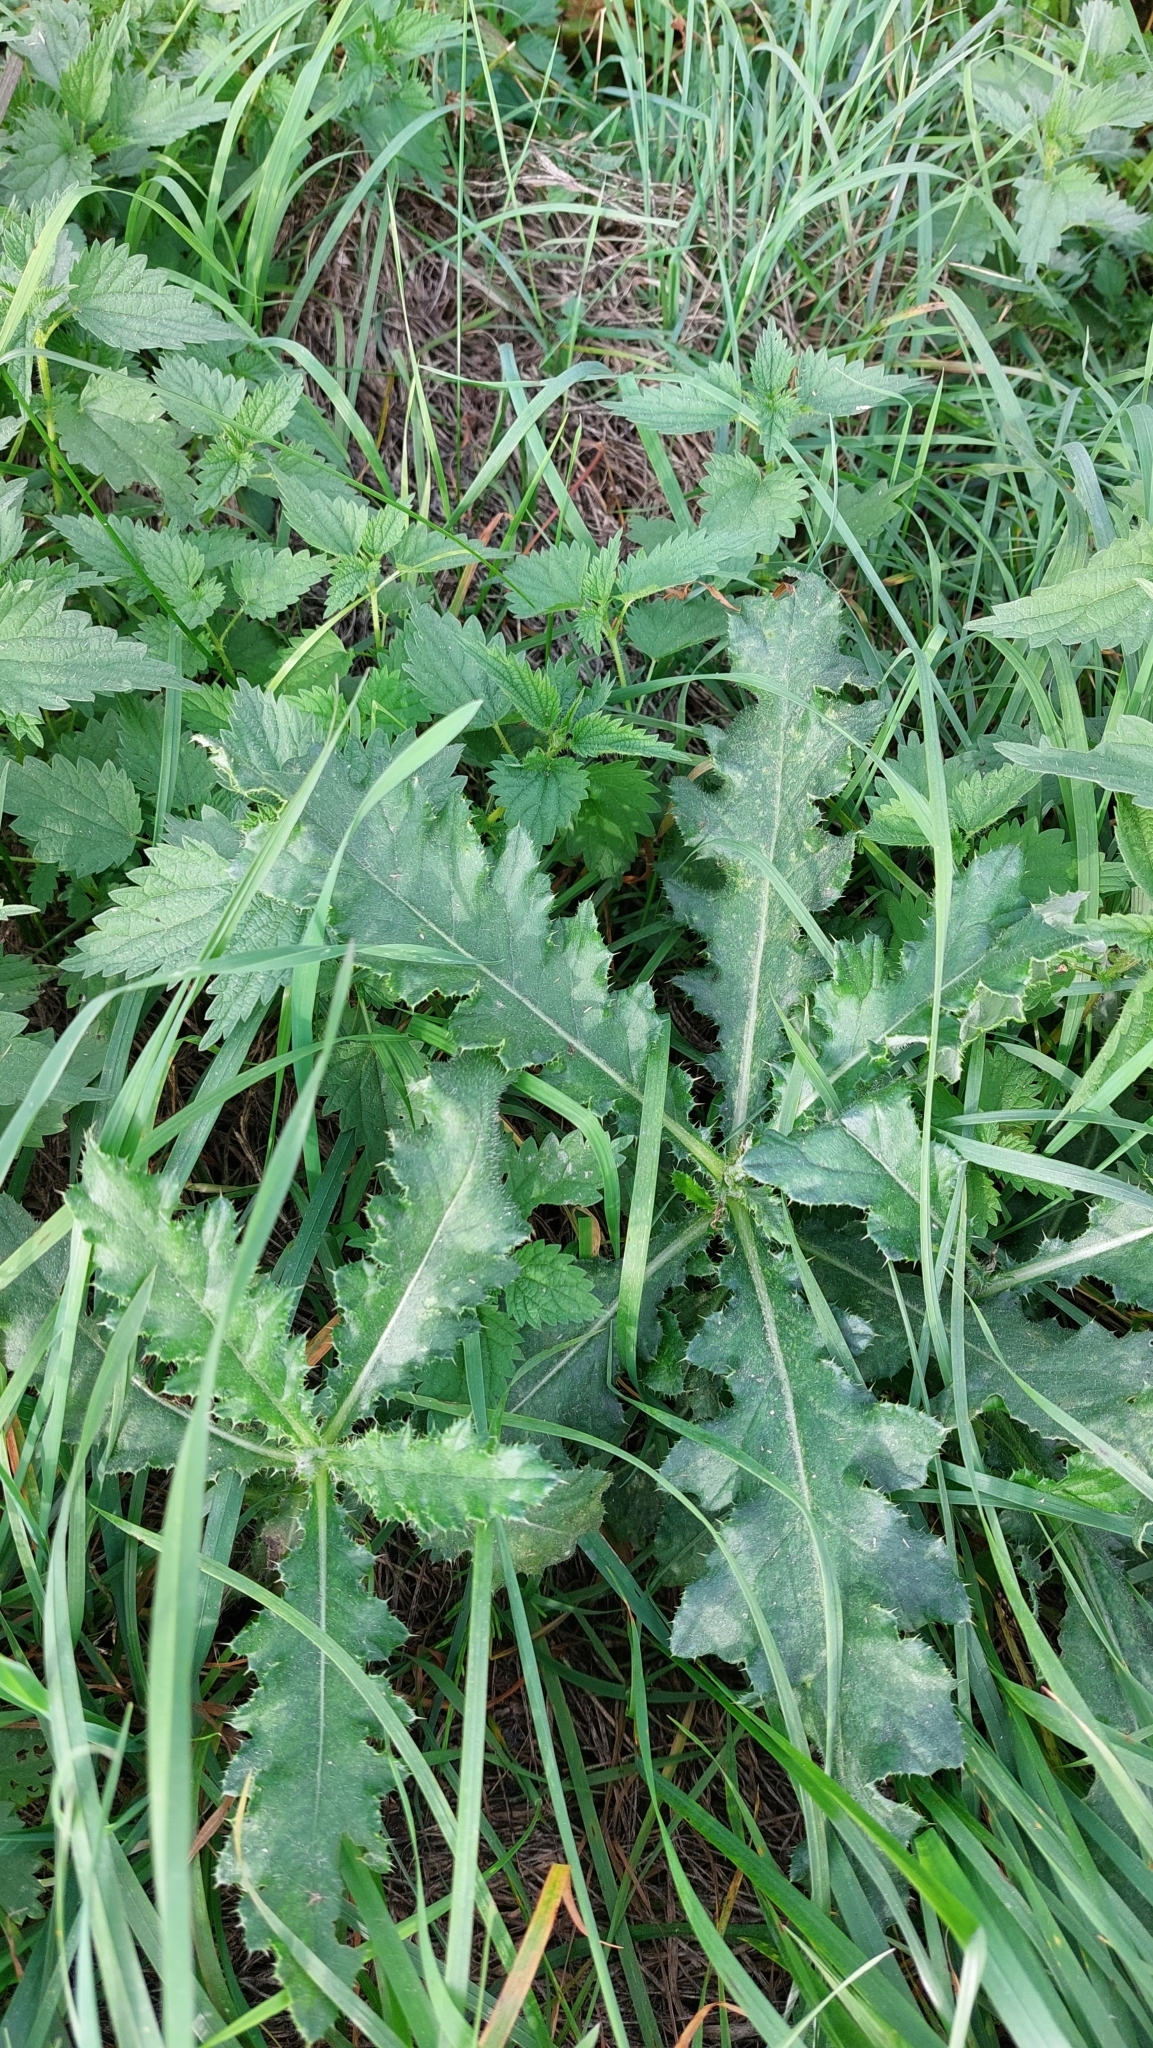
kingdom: Plantae
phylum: Tracheophyta
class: Magnoliopsida
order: Asterales
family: Asteraceae
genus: Cirsium
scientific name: Cirsium arvense
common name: Creeping thistle
